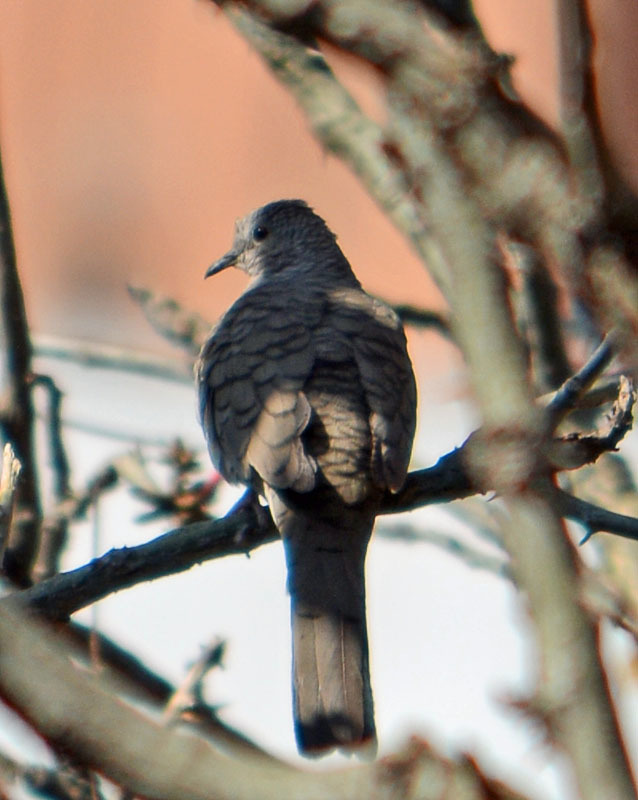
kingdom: Animalia
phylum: Chordata
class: Aves
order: Columbiformes
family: Columbidae
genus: Columbina
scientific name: Columbina inca
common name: Inca dove
